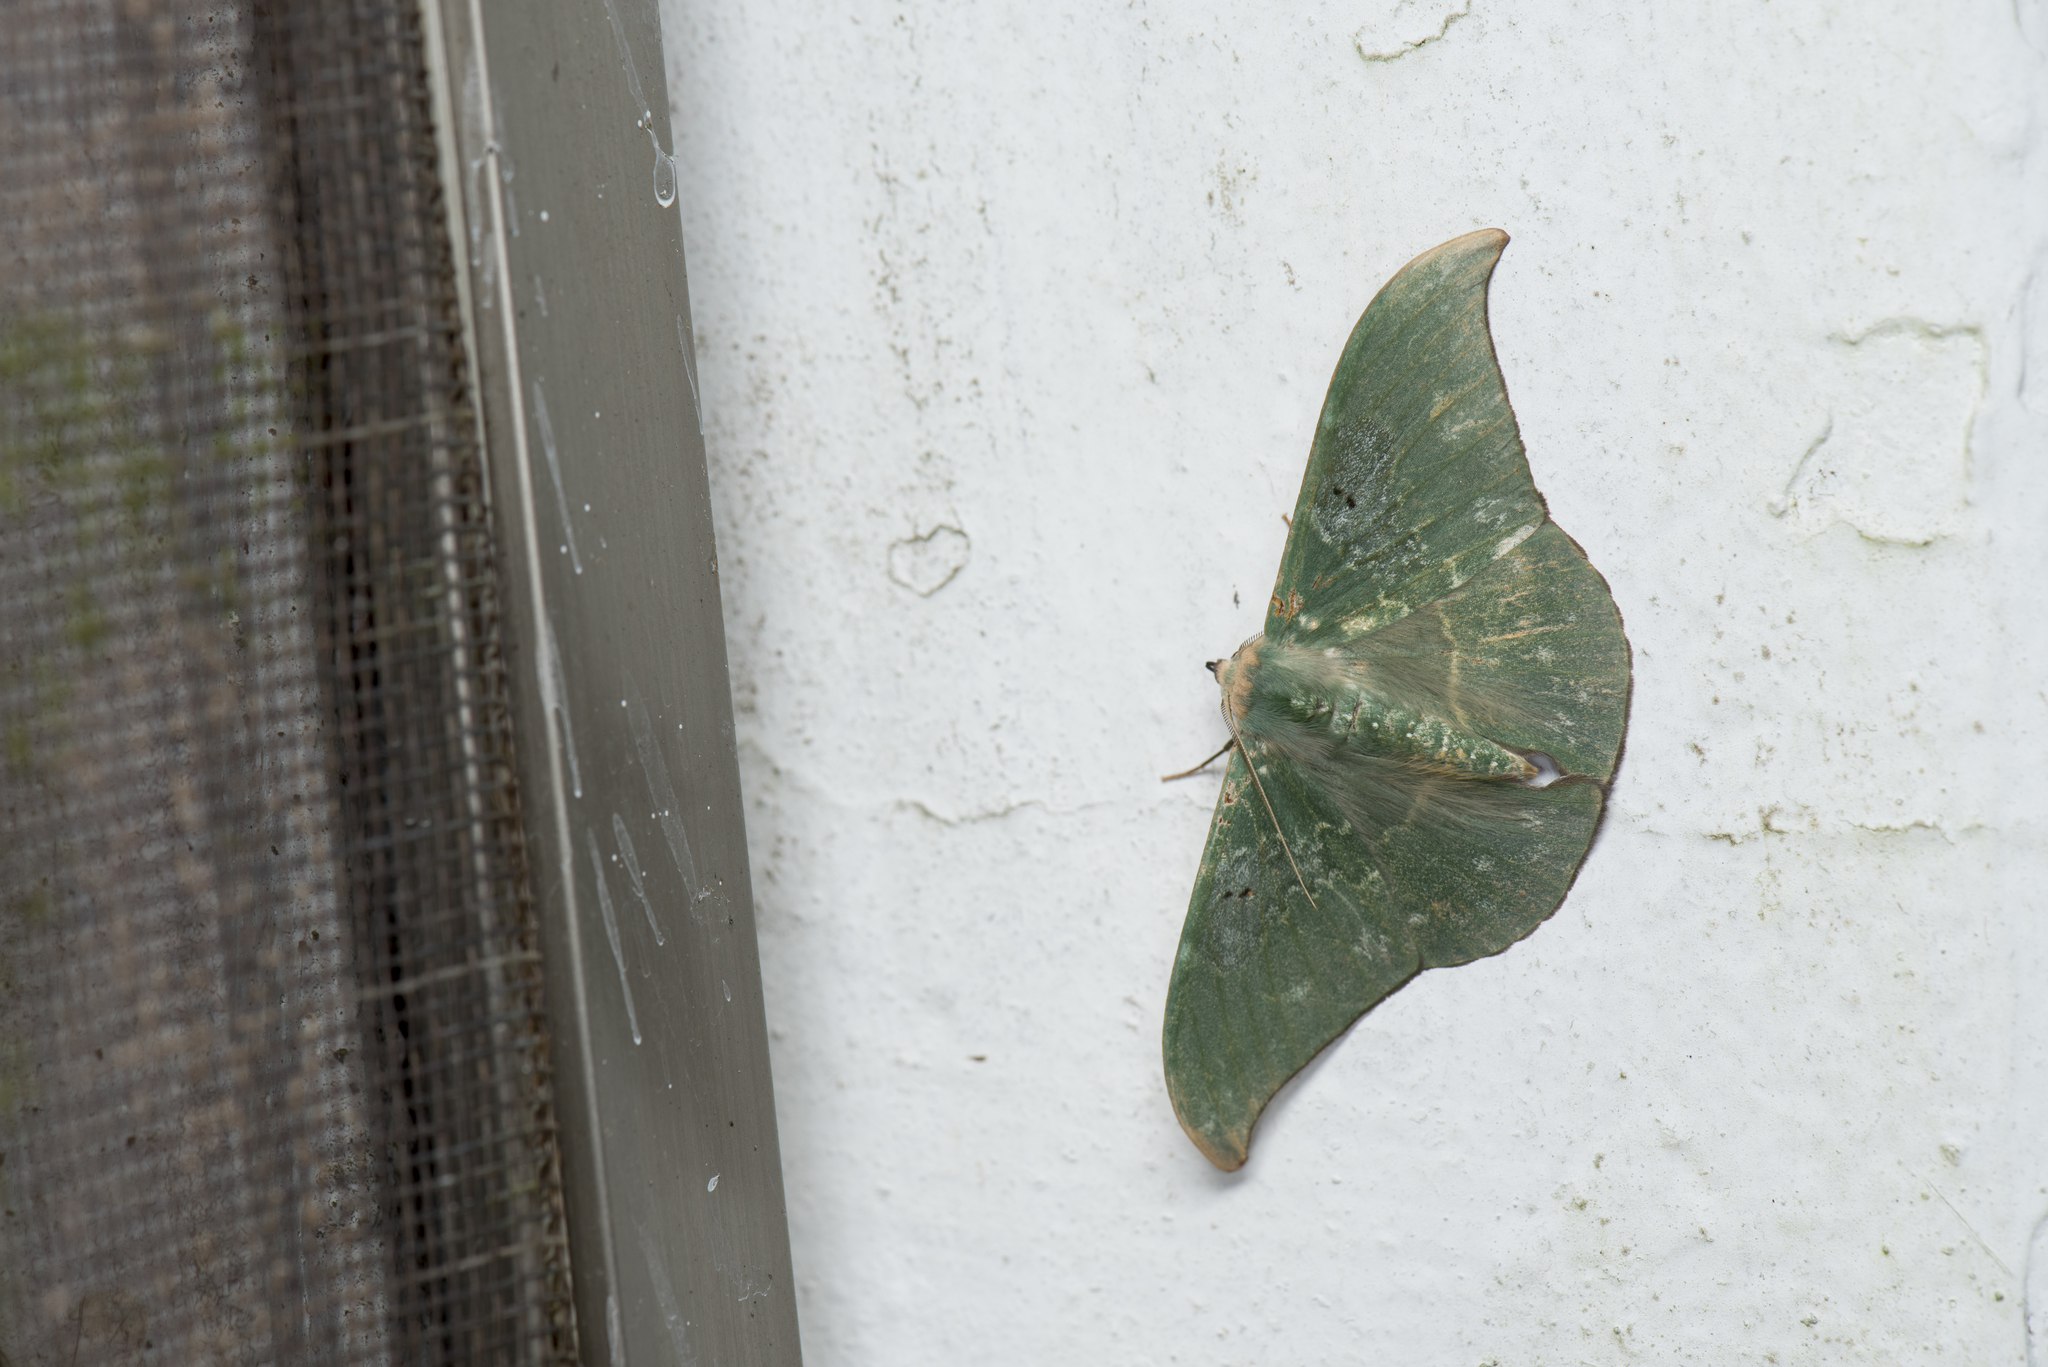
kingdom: Animalia
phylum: Arthropoda
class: Insecta
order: Lepidoptera
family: Geometridae
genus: Tanaorhinus
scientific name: Tanaorhinus viridiluteata
